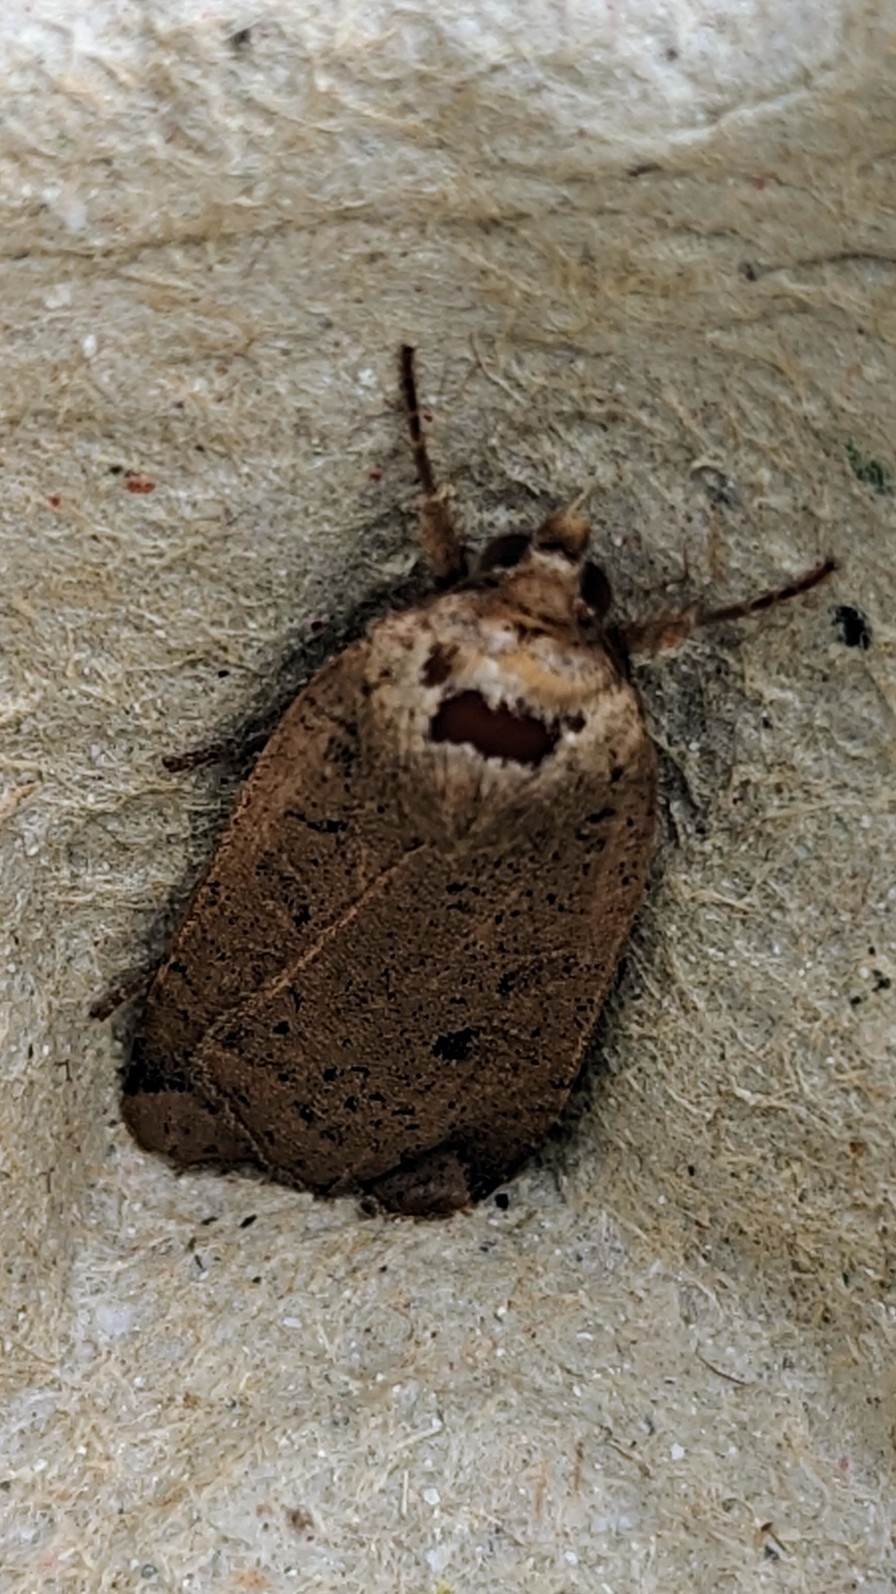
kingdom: Animalia
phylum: Arthropoda
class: Insecta
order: Lepidoptera
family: Noctuidae
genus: Noctua
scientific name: Noctua comes
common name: Lesser yellow underwing
